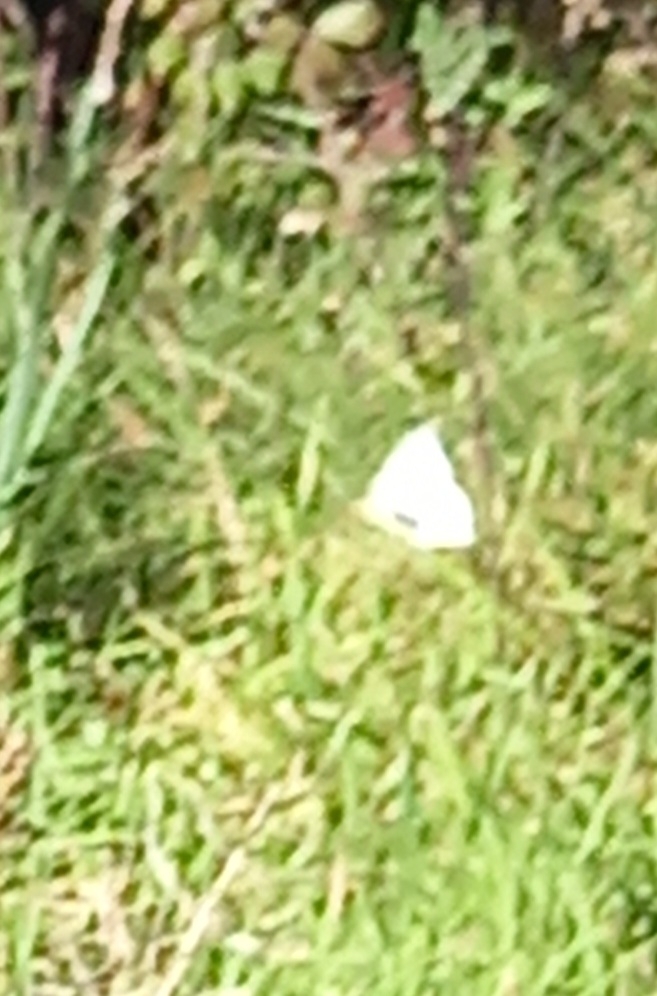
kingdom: Animalia
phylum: Arthropoda
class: Insecta
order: Lepidoptera
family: Pieridae
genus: Pieris
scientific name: Pieris rapae
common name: Small white
